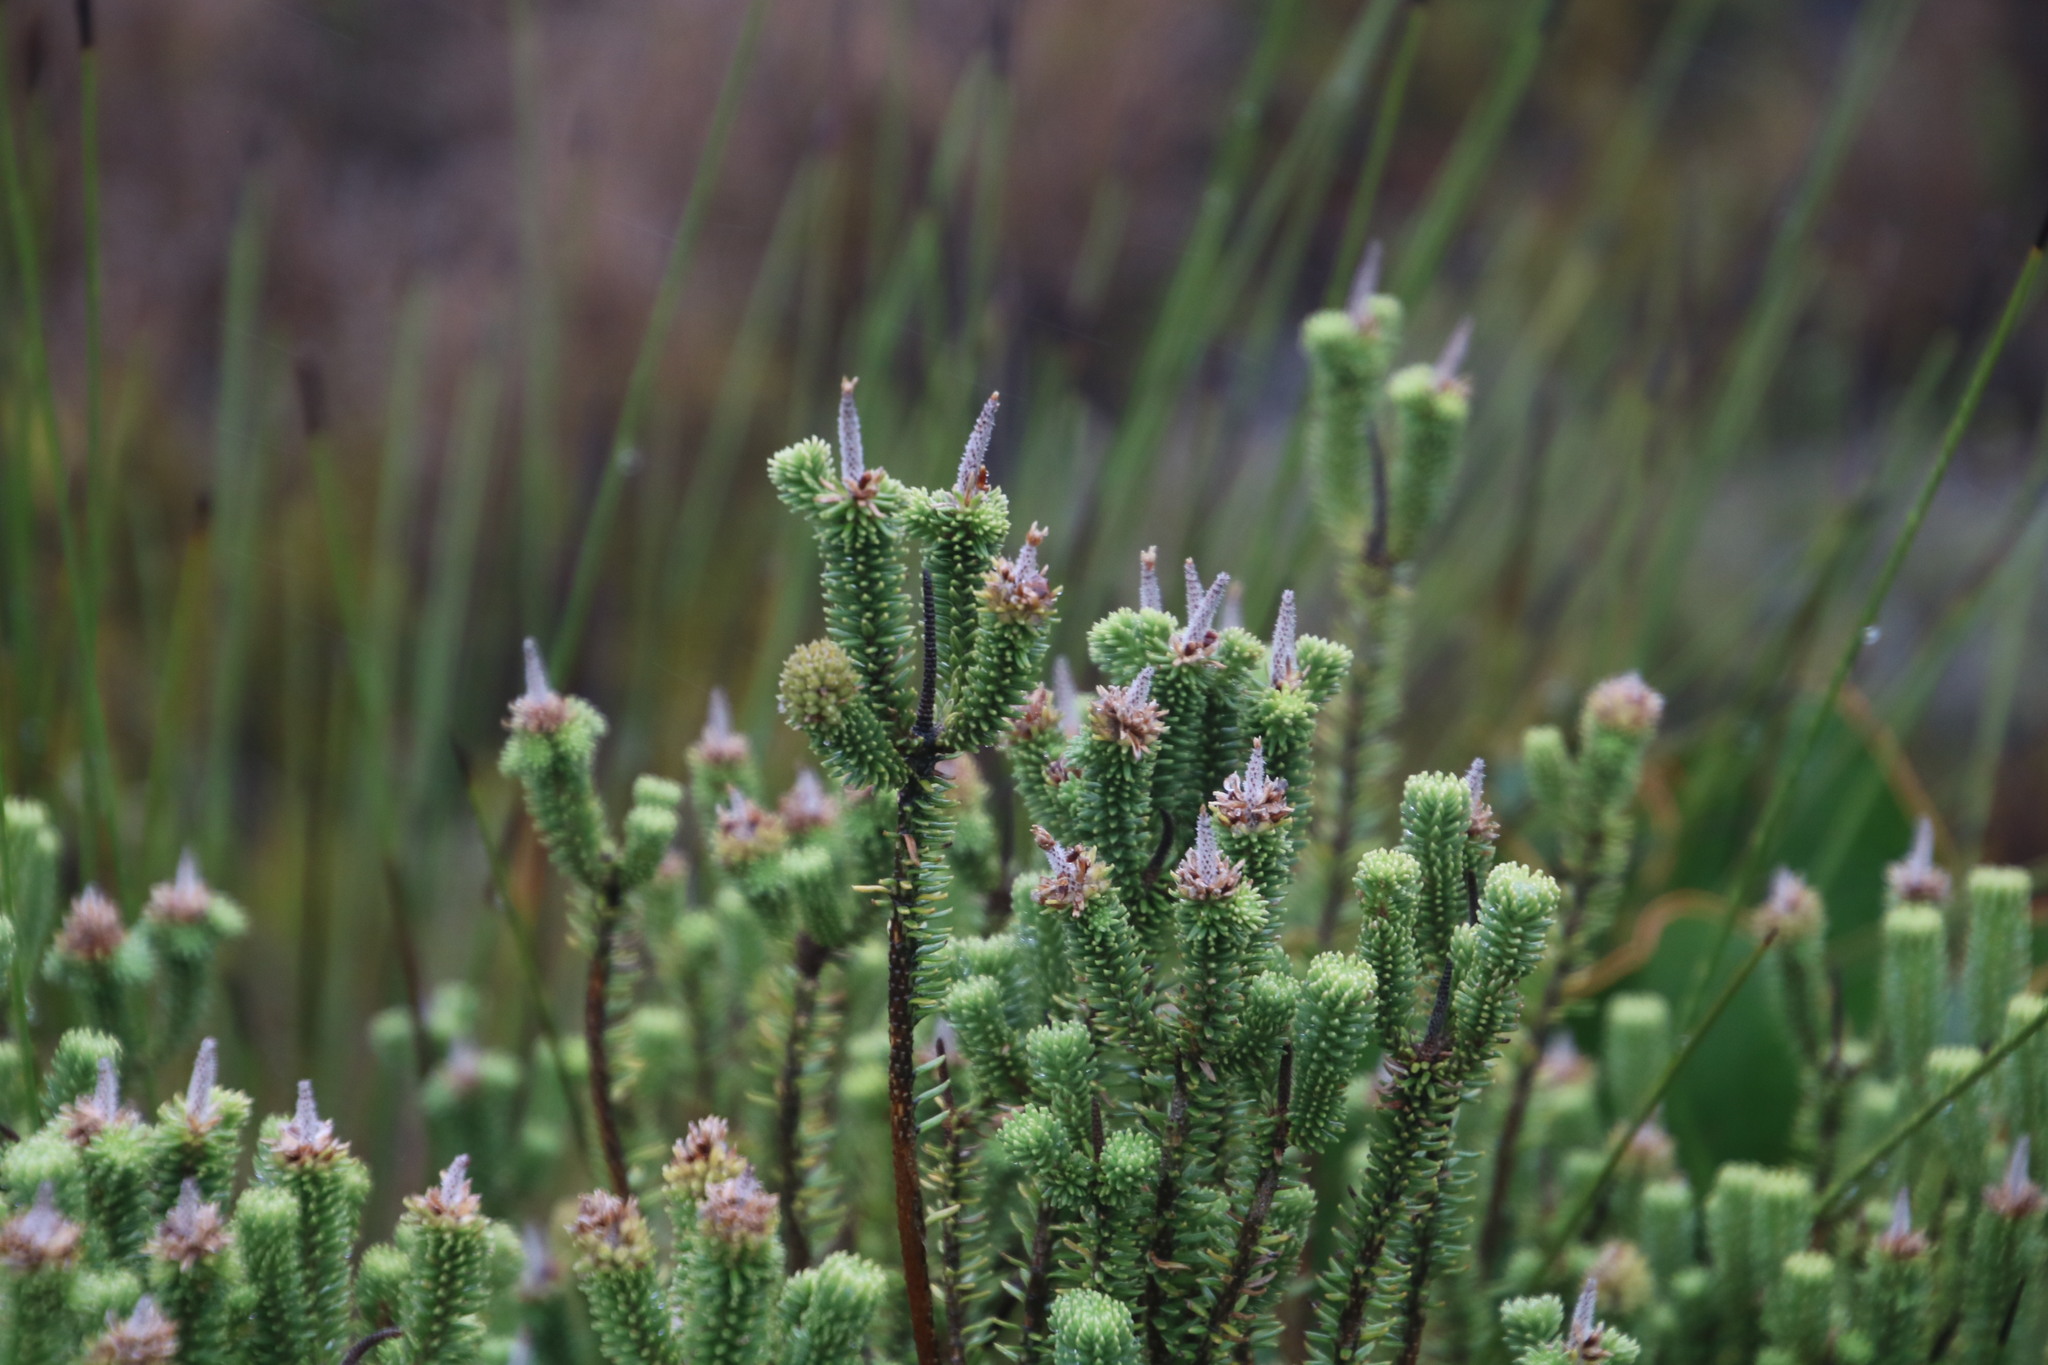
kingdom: Plantae
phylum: Tracheophyta
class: Magnoliopsida
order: Lamiales
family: Stilbaceae
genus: Stilbe
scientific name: Stilbe vestita
